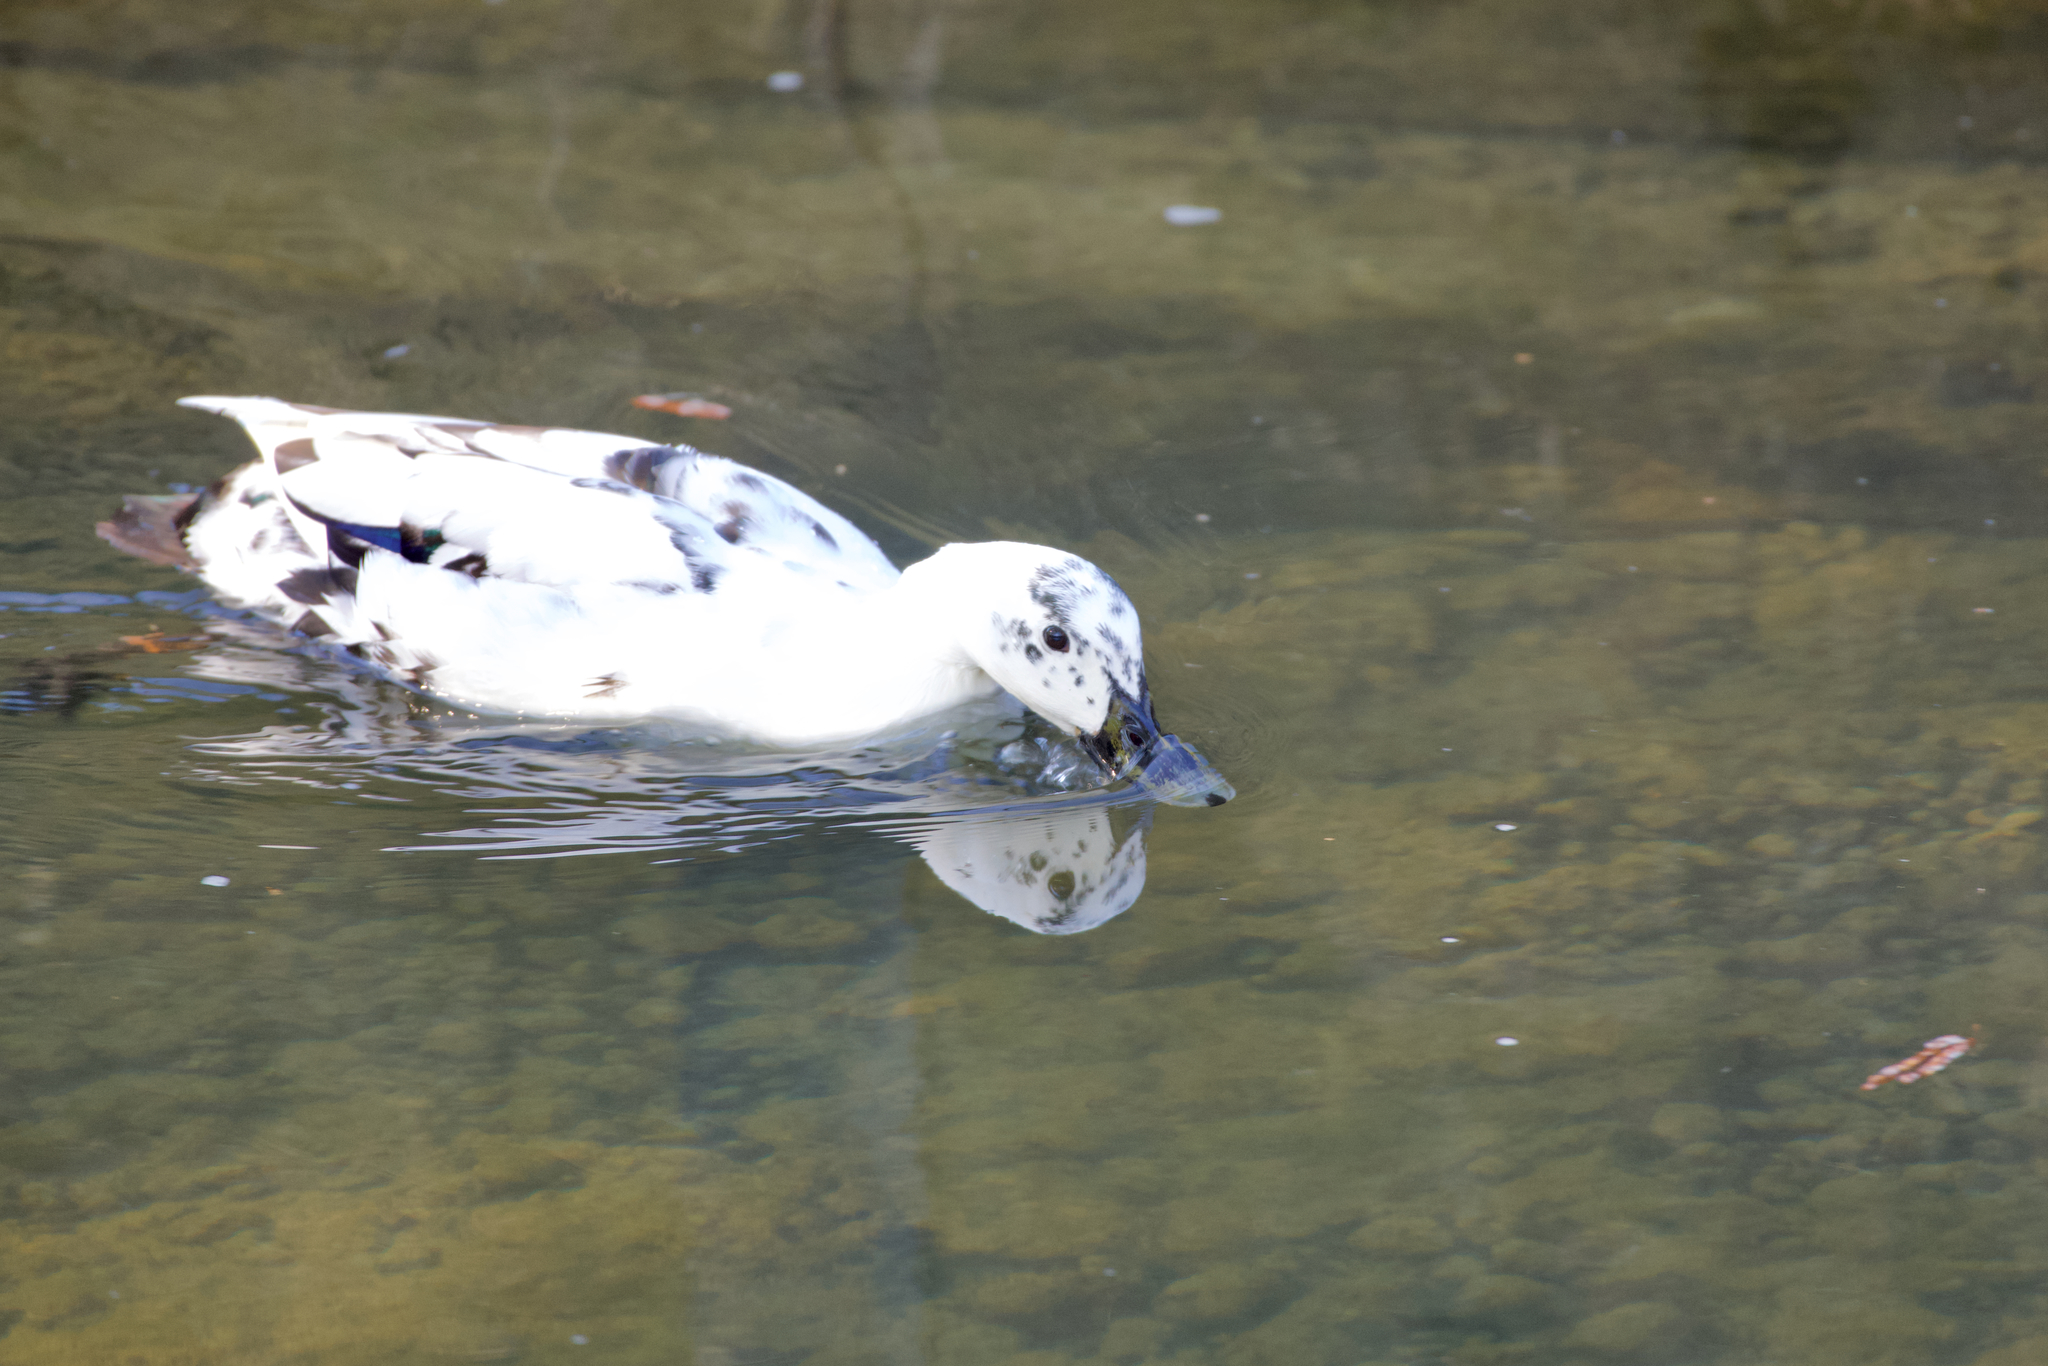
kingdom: Animalia
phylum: Chordata
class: Aves
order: Anseriformes
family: Anatidae
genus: Anas
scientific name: Anas platyrhynchos
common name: Mallard
